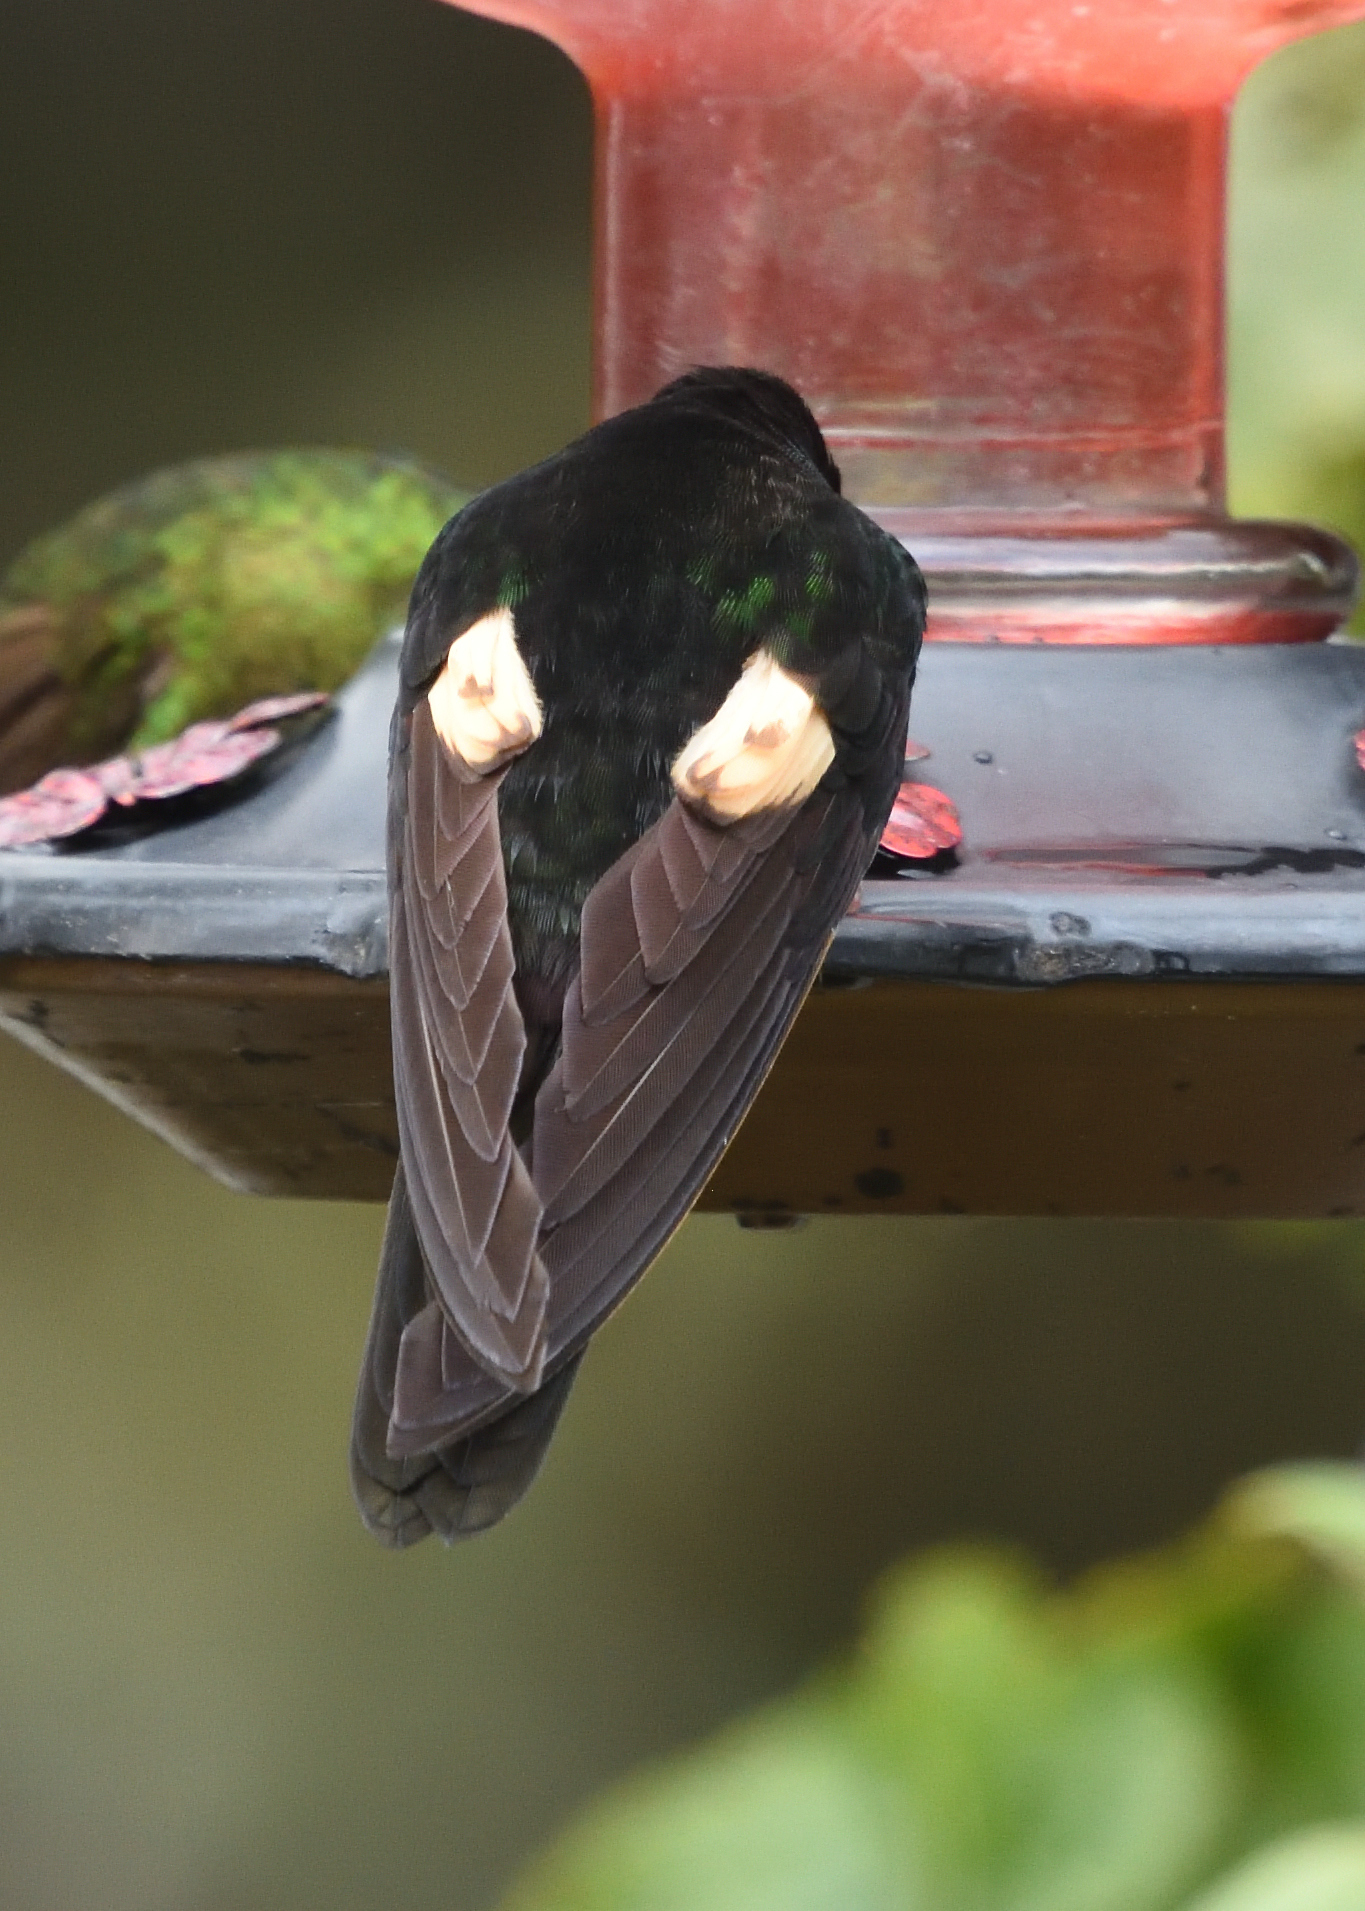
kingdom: Animalia
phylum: Chordata
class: Aves
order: Apodiformes
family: Trochilidae
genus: Coeligena
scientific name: Coeligena lutetiae
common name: Buff-winged starfrontlet
